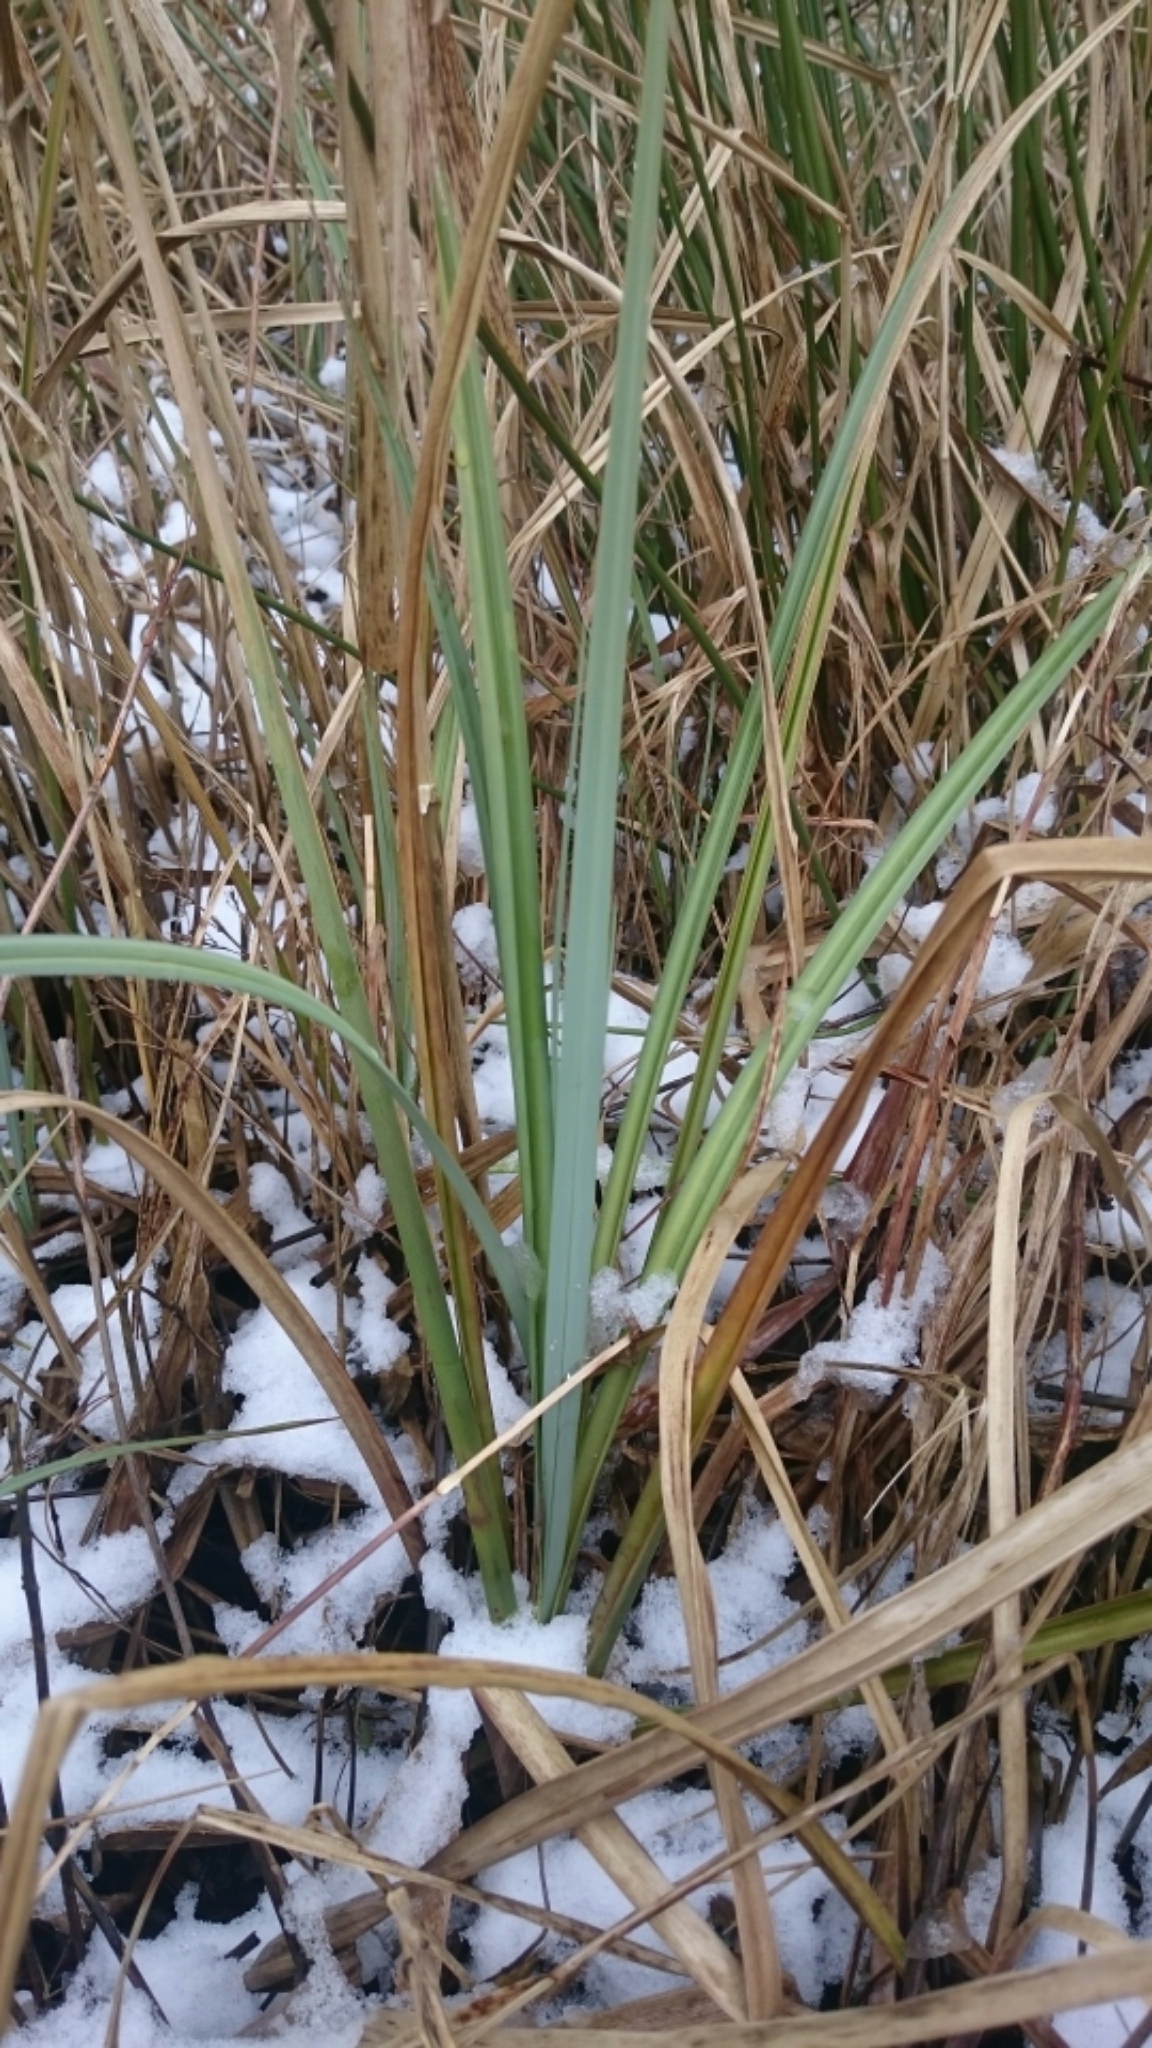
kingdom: Plantae
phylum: Tracheophyta
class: Liliopsida
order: Poales
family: Cyperaceae
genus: Carex
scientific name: Carex riparia
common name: Greater pond-sedge
